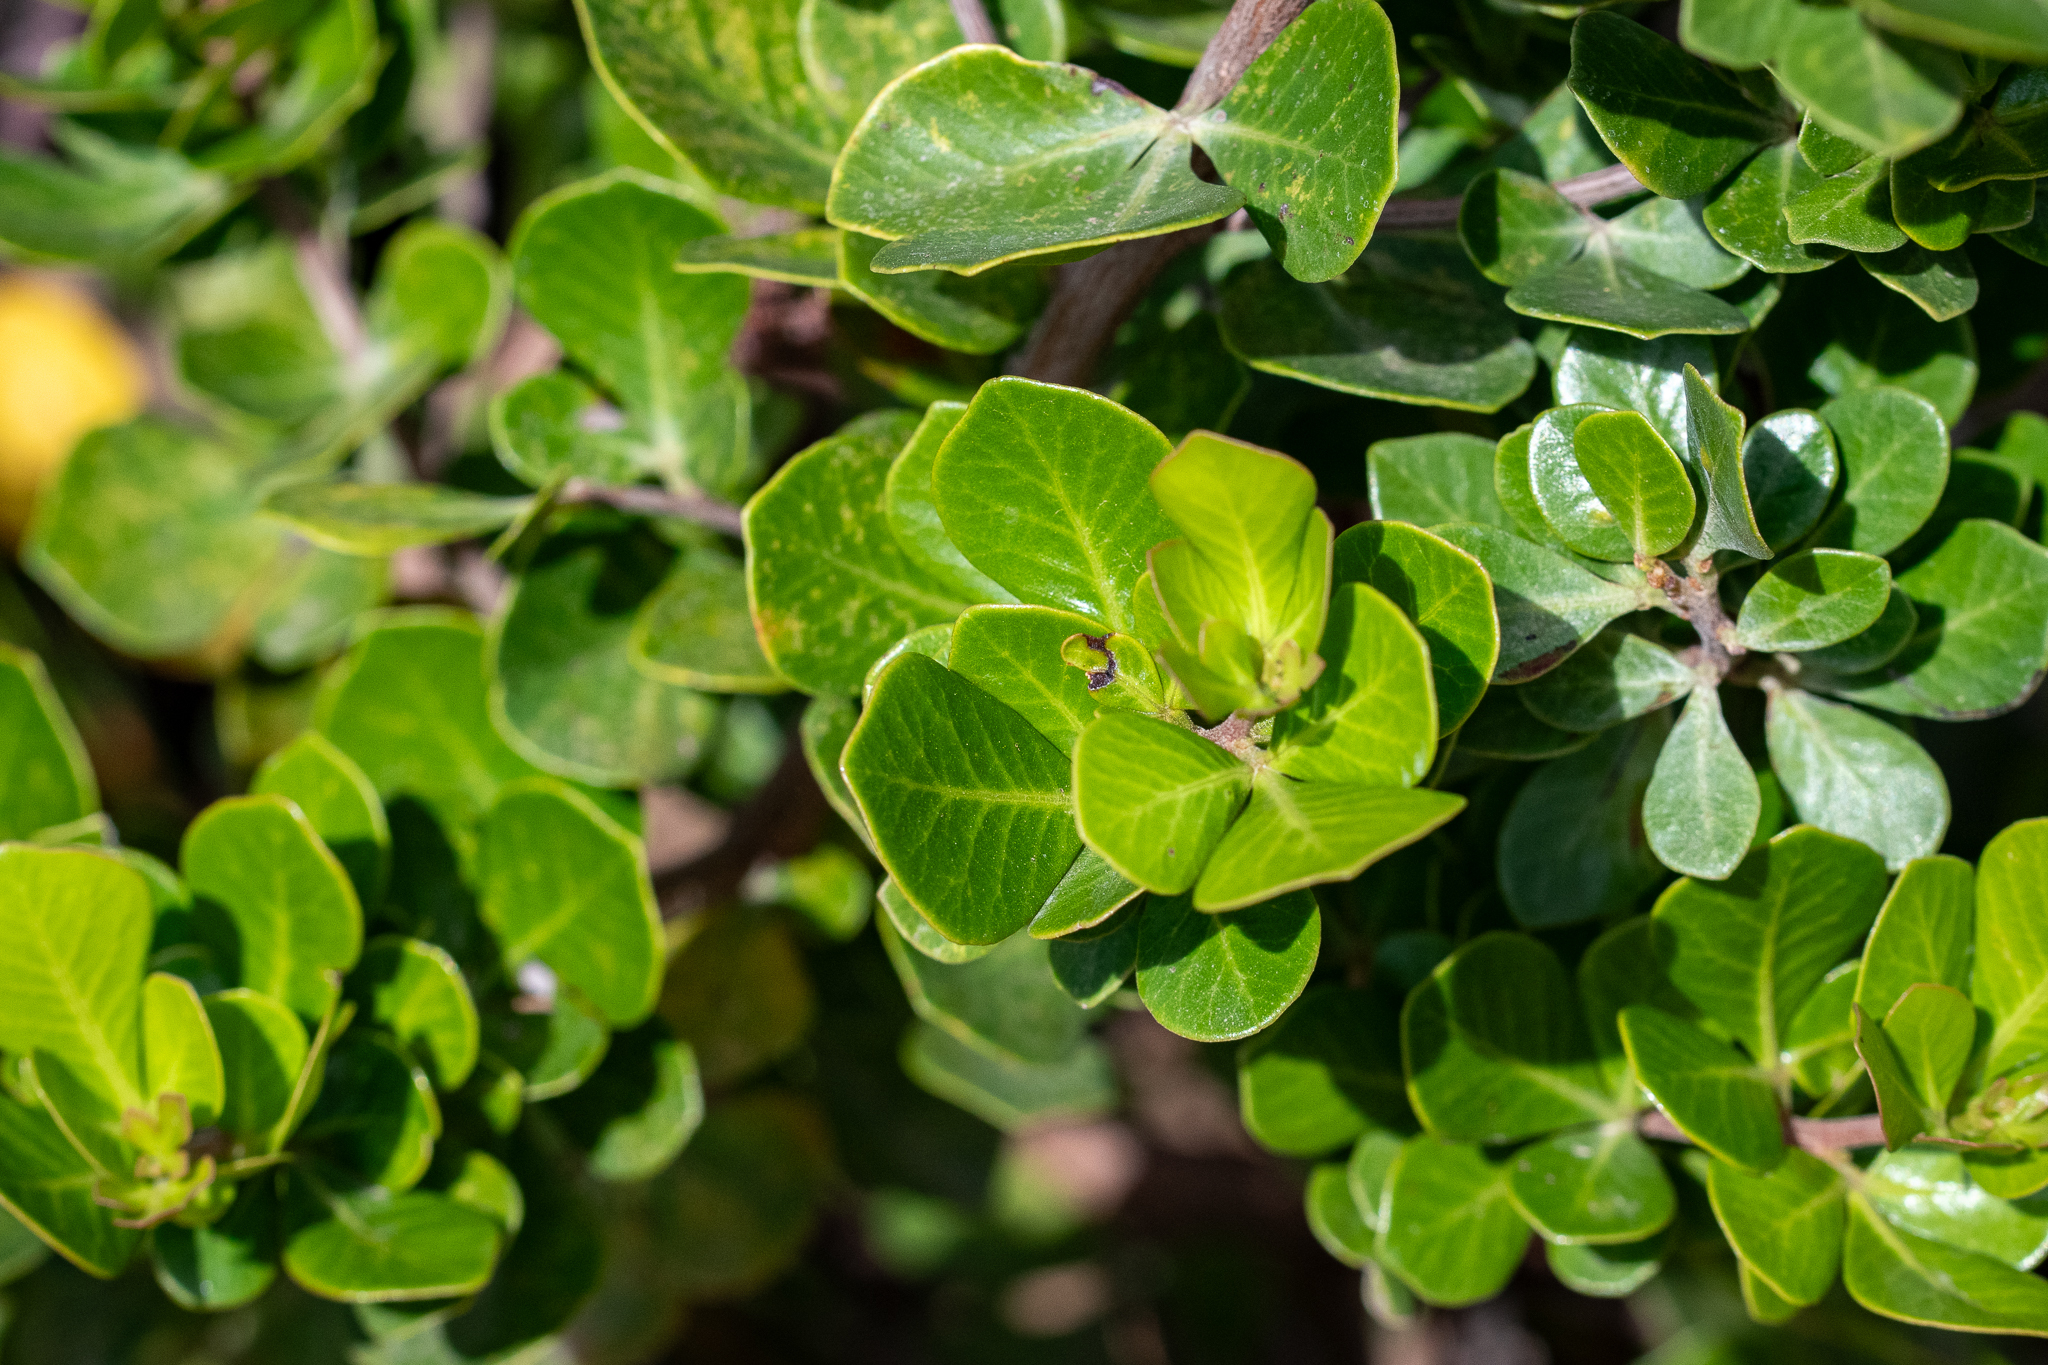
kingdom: Plantae
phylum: Tracheophyta
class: Magnoliopsida
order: Sapindales
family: Anacardiaceae
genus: Searsia
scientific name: Searsia lucida
